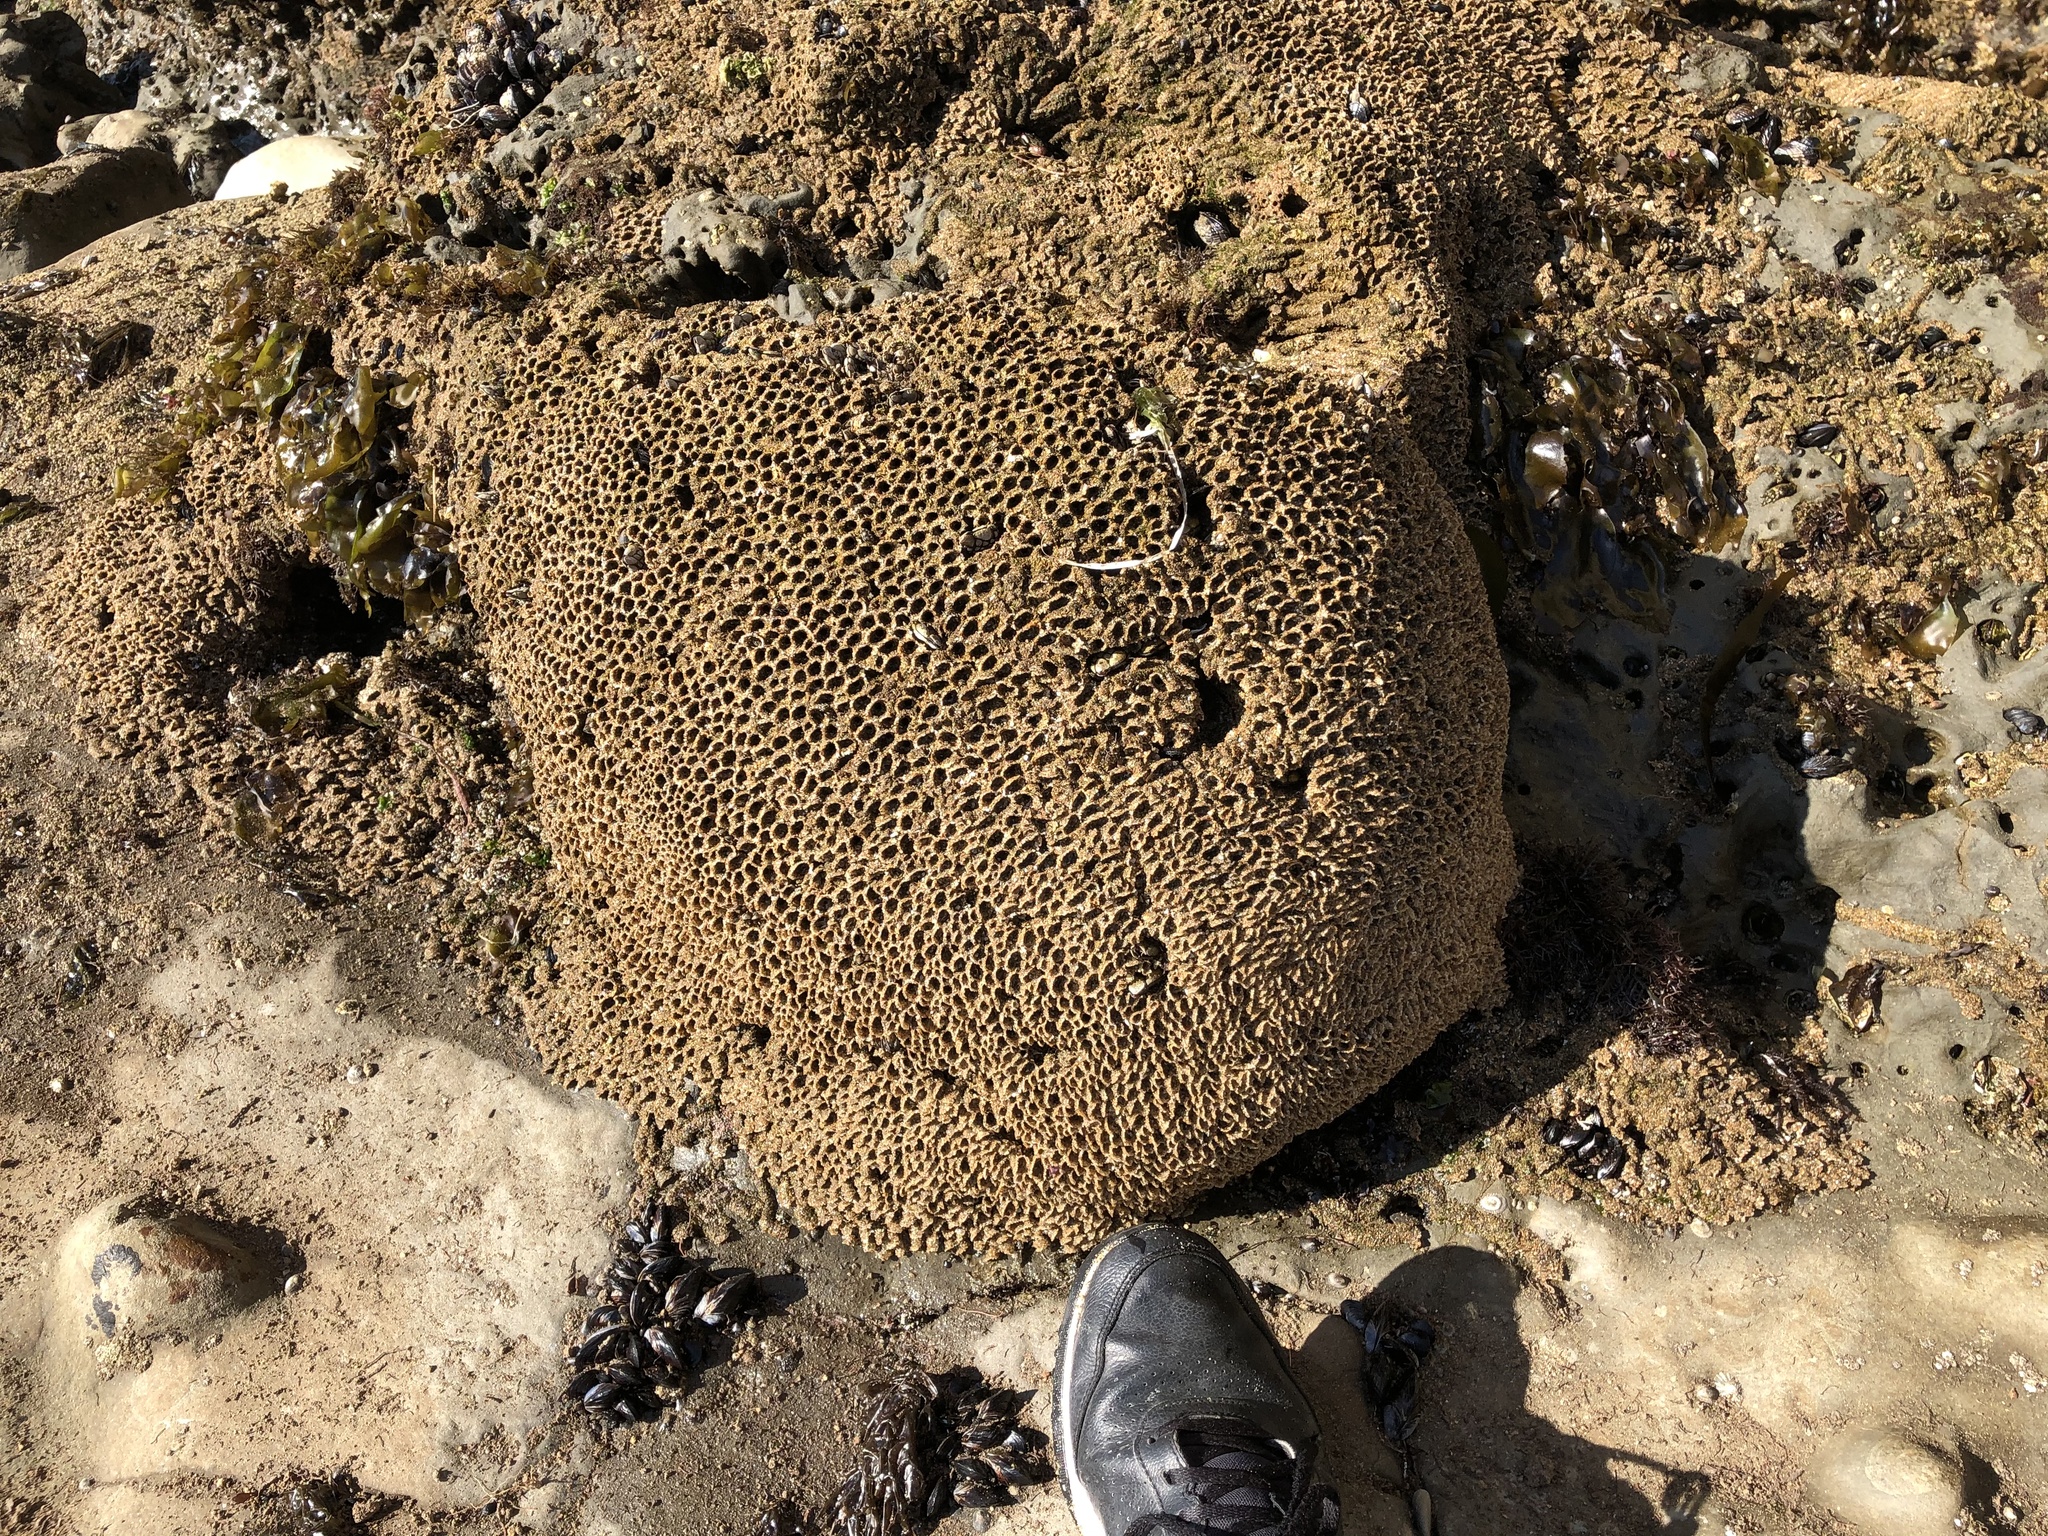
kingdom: Animalia
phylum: Annelida
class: Polychaeta
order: Sabellida
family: Sabellariidae
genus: Phragmatopoma
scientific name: Phragmatopoma californica
